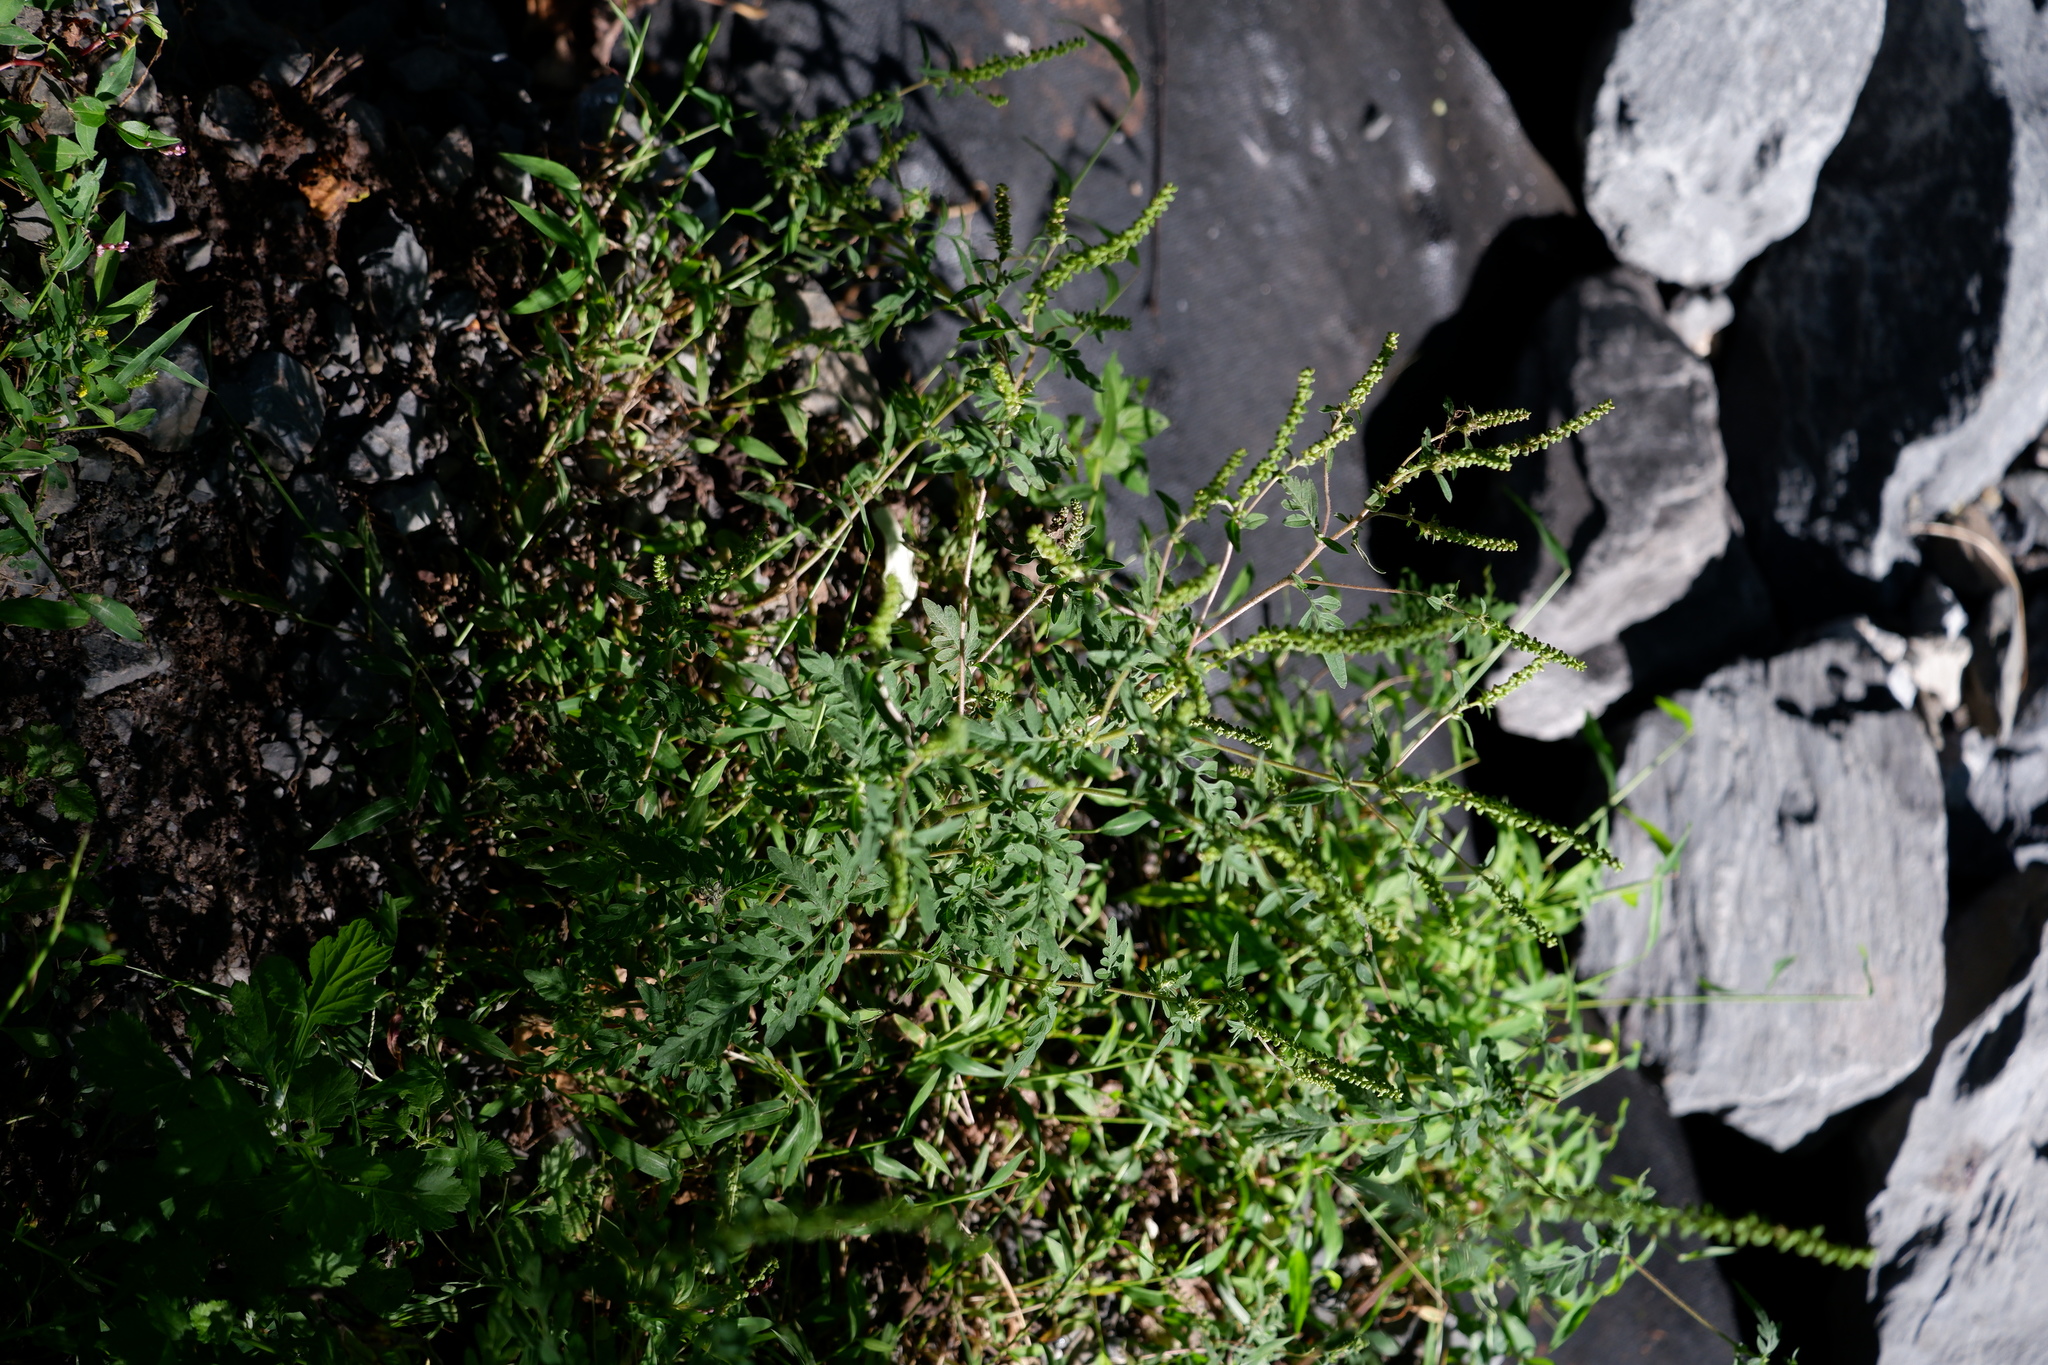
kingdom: Plantae
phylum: Tracheophyta
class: Magnoliopsida
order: Asterales
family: Asteraceae
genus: Ambrosia
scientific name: Ambrosia artemisiifolia
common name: Annual ragweed
